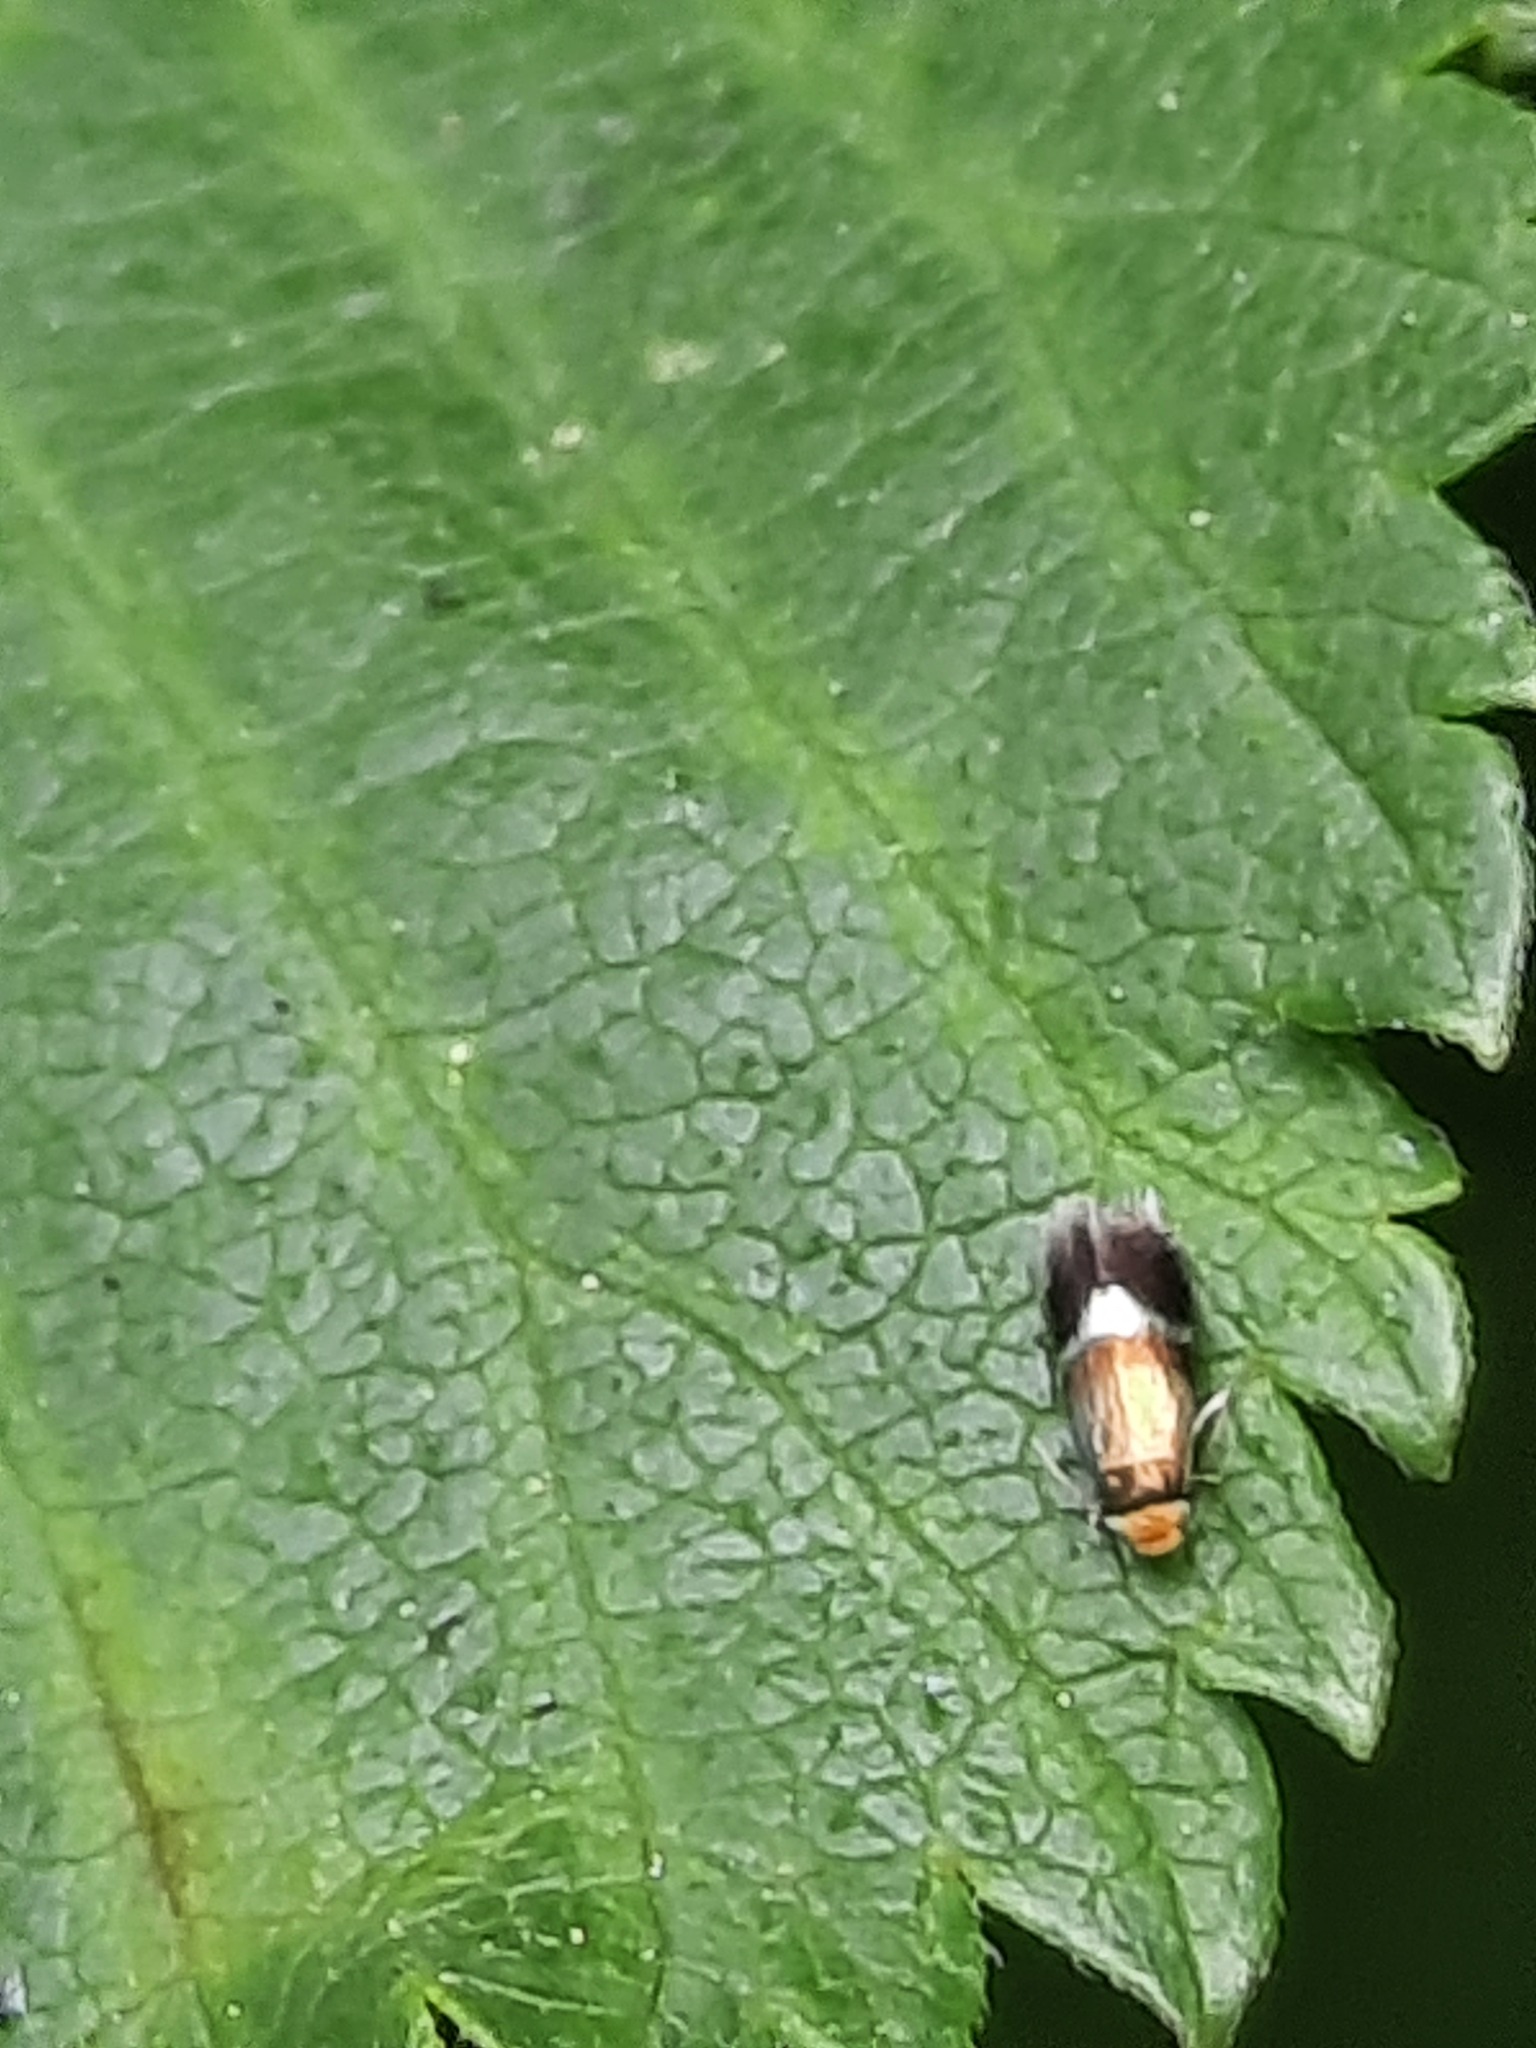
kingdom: Animalia
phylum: Arthropoda
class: Insecta
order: Lepidoptera
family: Nepticulidae
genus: Stigmella
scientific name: Stigmella aurella
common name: Golden pigmy
